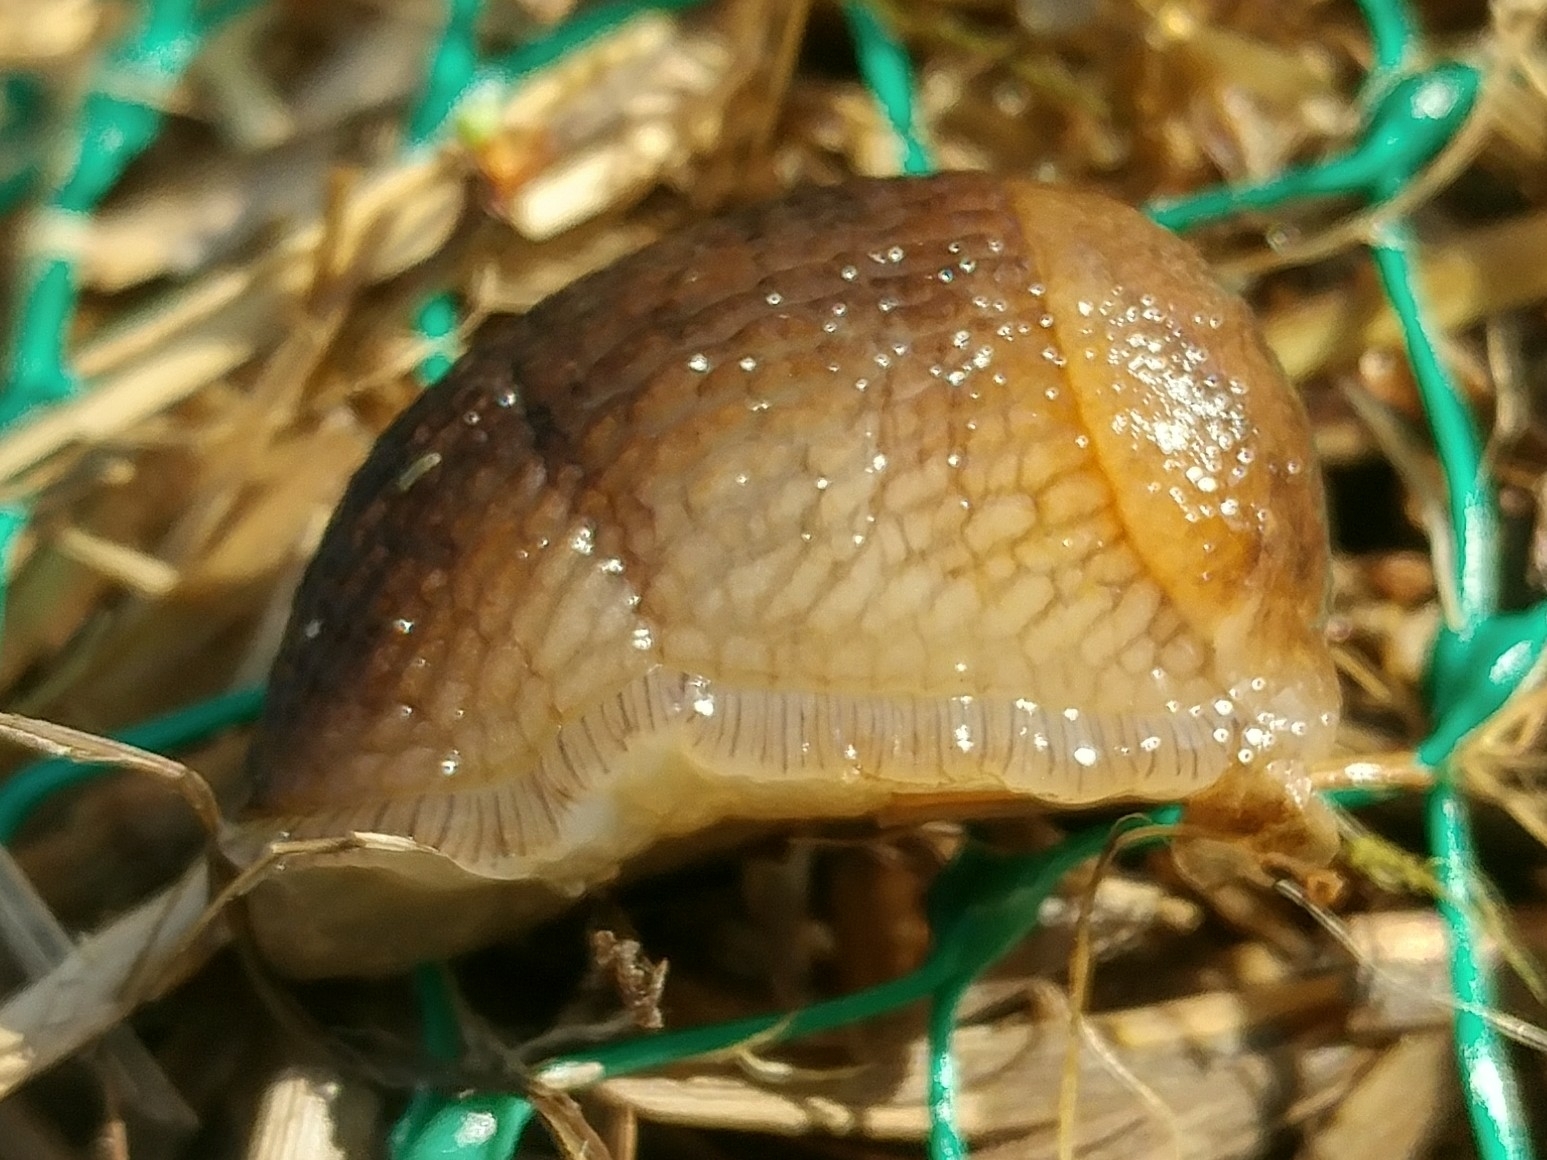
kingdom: Animalia
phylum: Mollusca
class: Gastropoda
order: Stylommatophora
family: Arionidae
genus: Mesarion
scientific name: Mesarion
